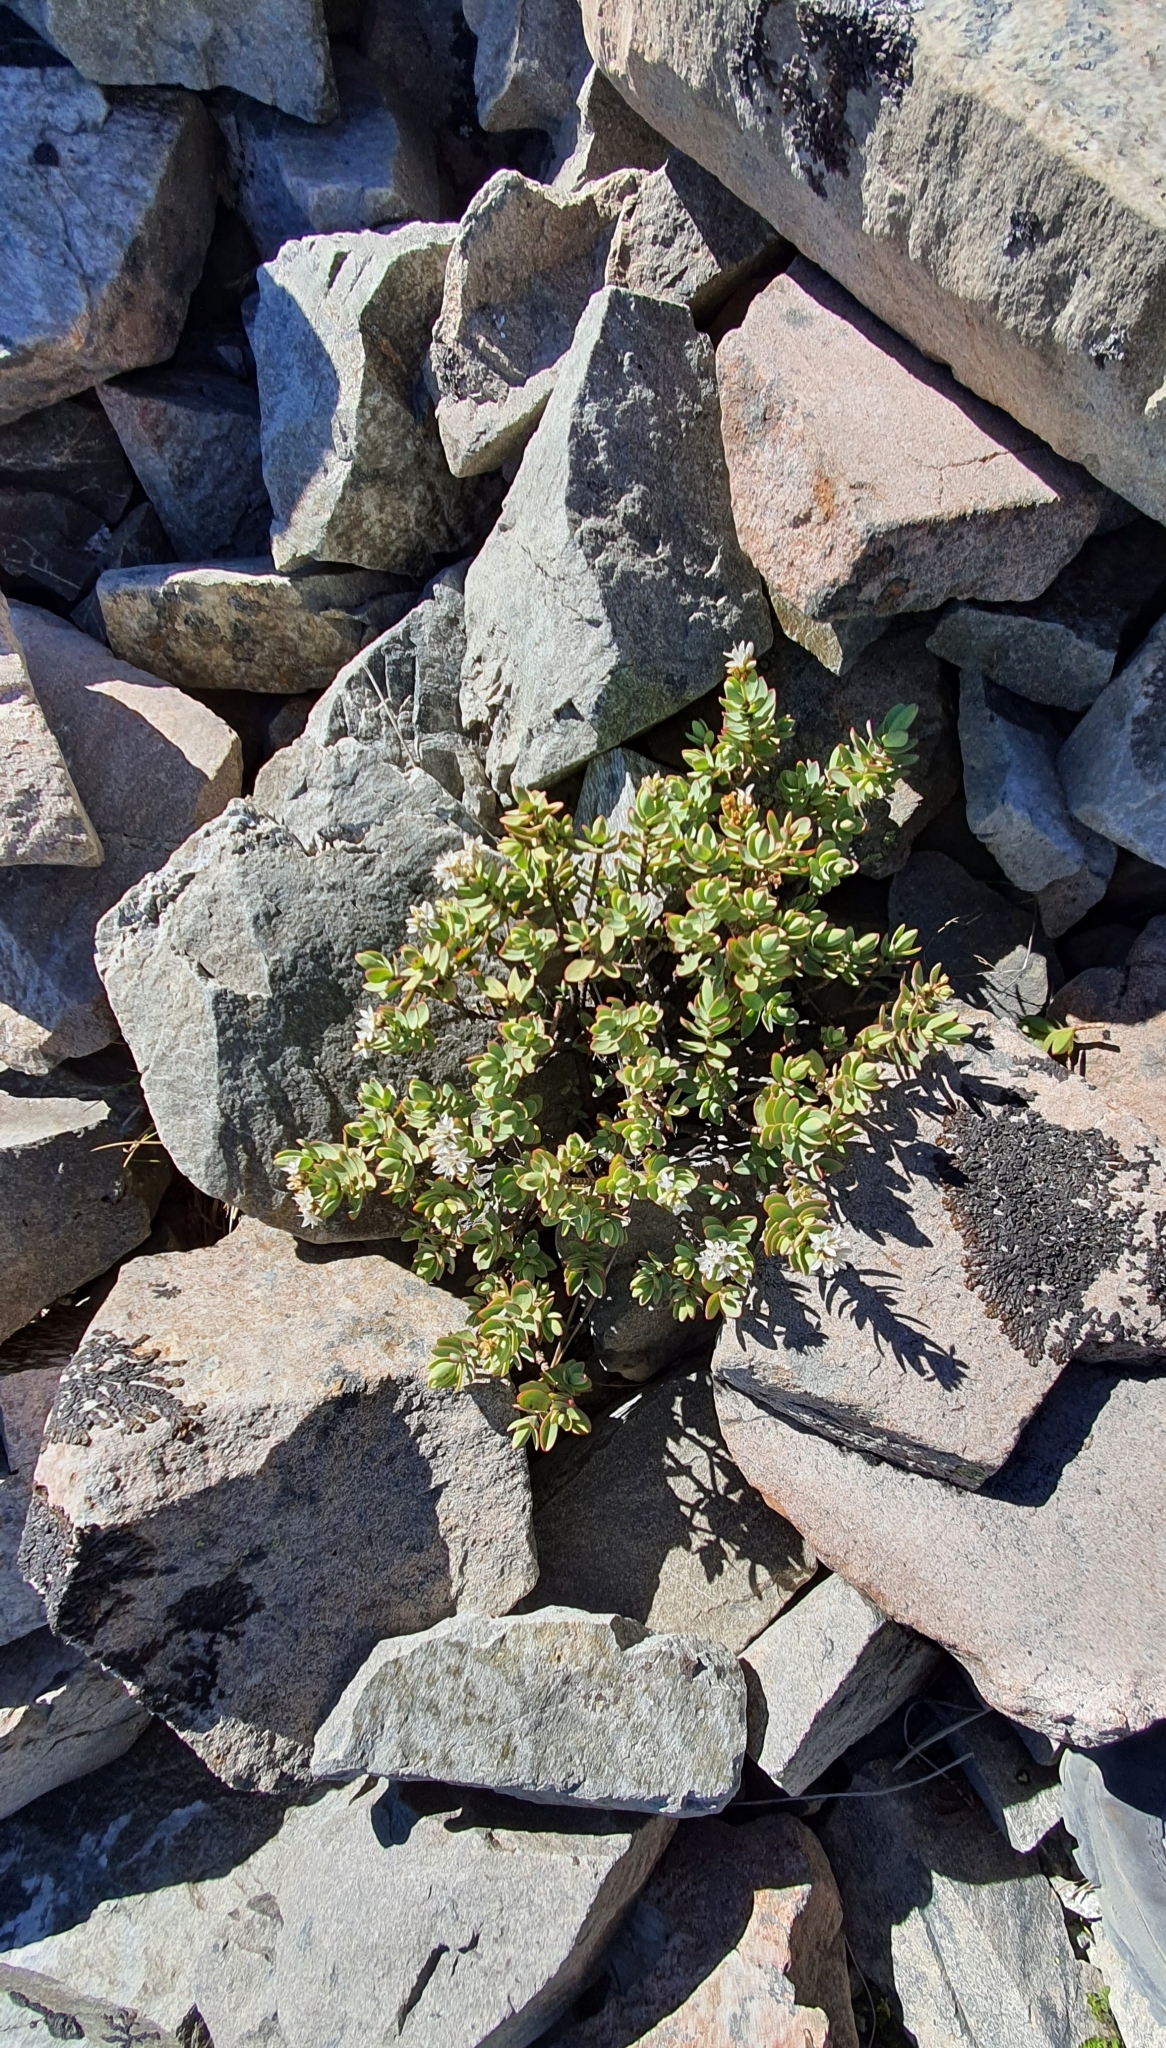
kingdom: Plantae
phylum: Tracheophyta
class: Magnoliopsida
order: Lamiales
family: Plantaginaceae
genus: Veronica
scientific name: Veronica pinguifolia
